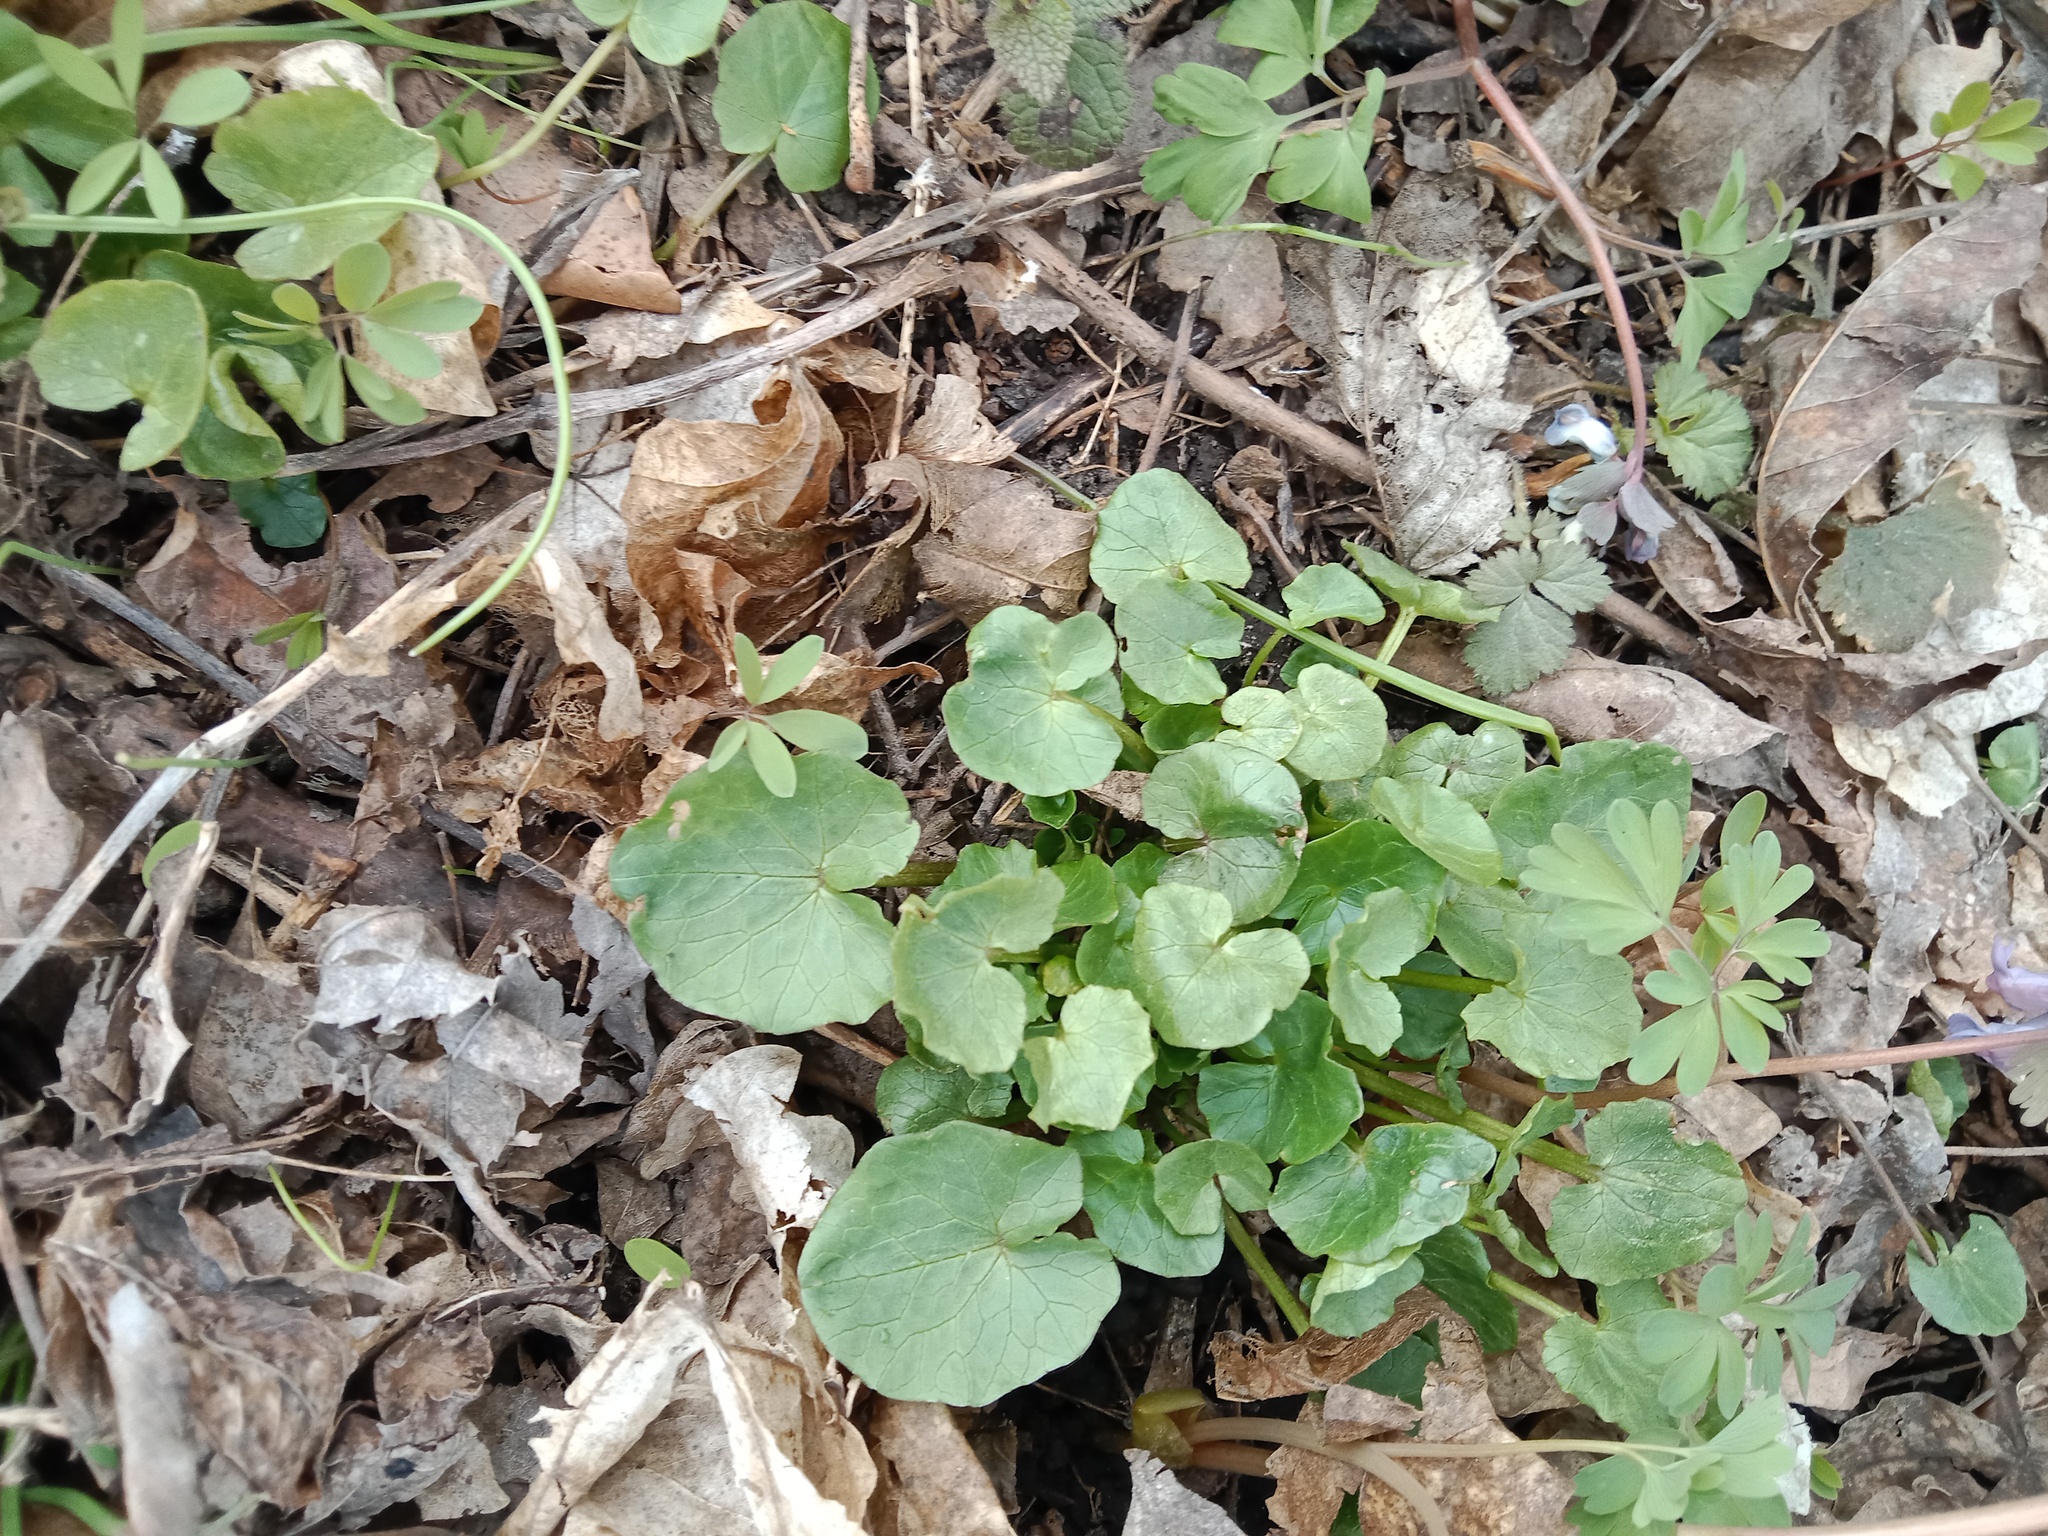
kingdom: Plantae
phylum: Tracheophyta
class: Magnoliopsida
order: Ranunculales
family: Ranunculaceae
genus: Ficaria
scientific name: Ficaria verna
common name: Lesser celandine
